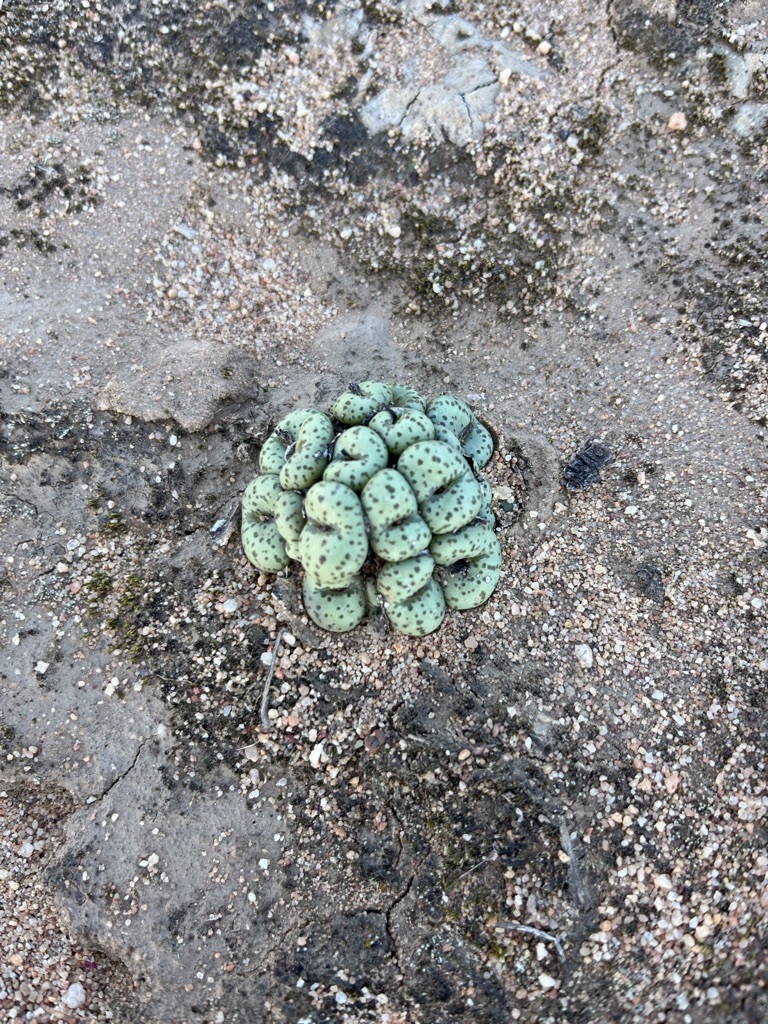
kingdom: Plantae
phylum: Tracheophyta
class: Magnoliopsida
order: Caryophyllales
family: Aizoaceae
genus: Conophytum
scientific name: Conophytum obcordellum
